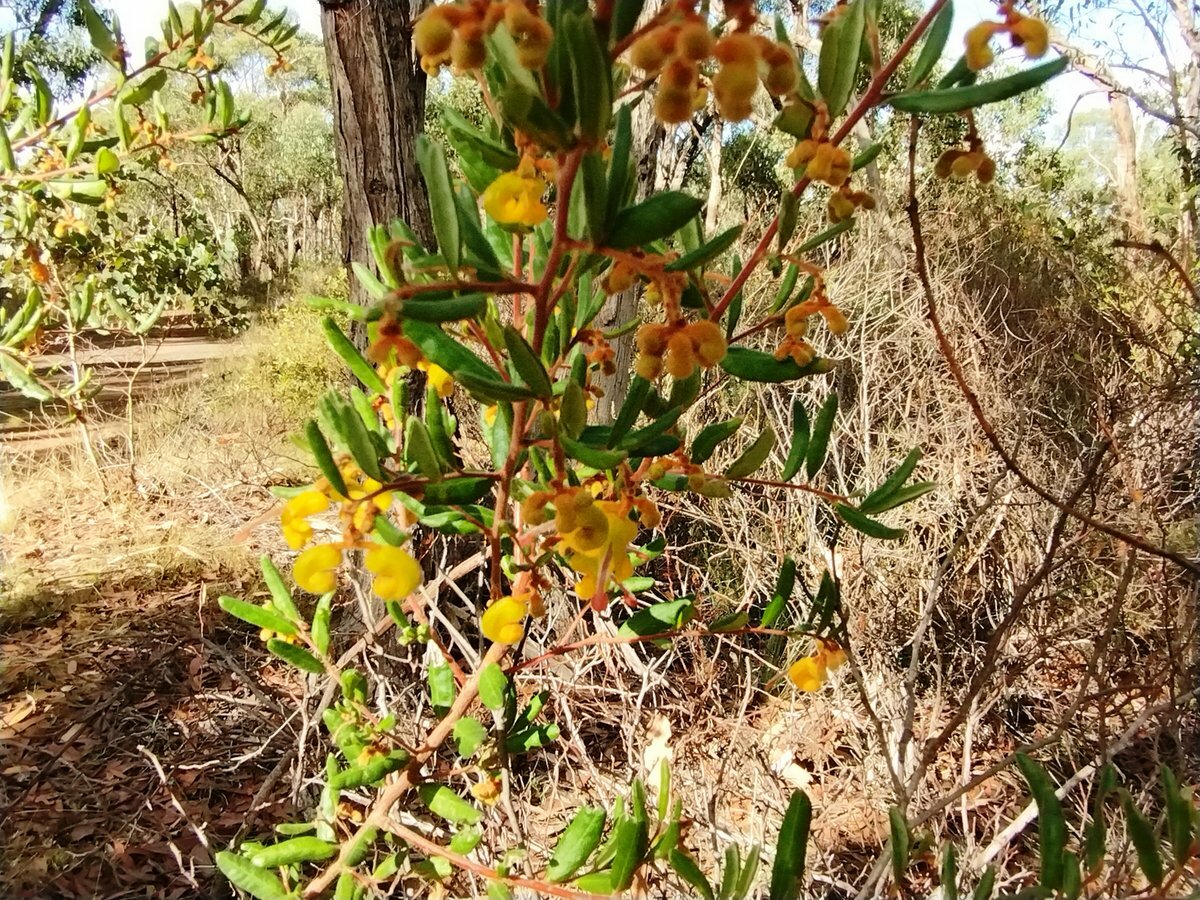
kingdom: Plantae
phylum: Tracheophyta
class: Magnoliopsida
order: Proteales
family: Proteaceae
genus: Grevillea
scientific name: Grevillea chrysophaea
